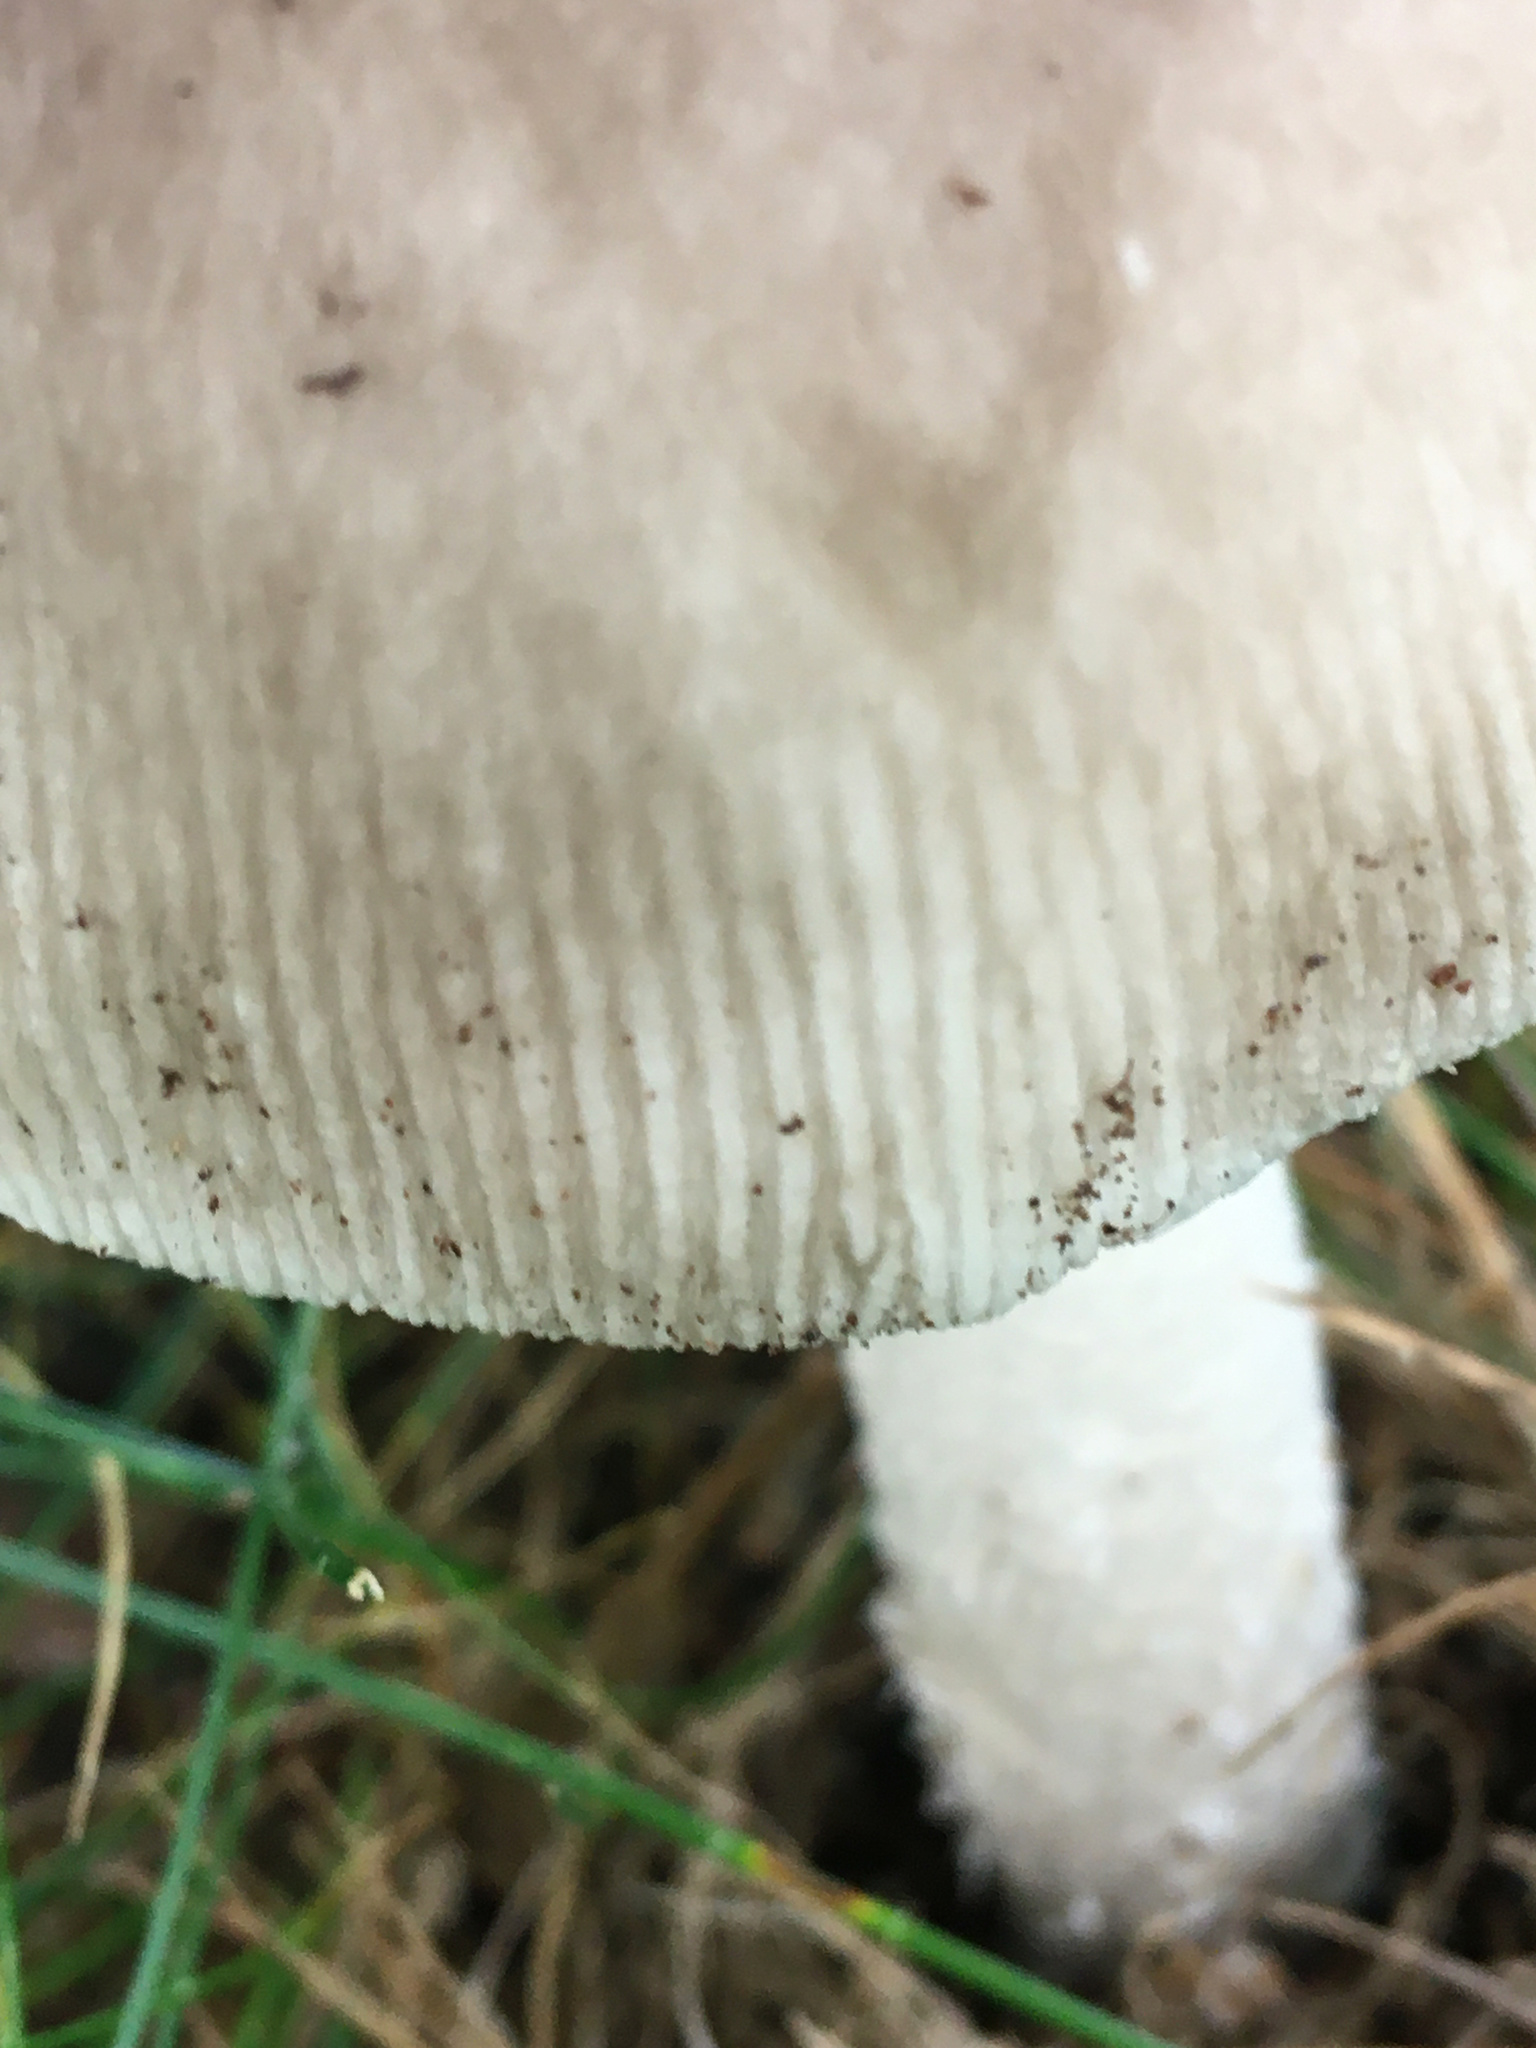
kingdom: Fungi
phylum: Basidiomycota
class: Agaricomycetes
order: Agaricales
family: Amanitaceae
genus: Amanita
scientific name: Amanita spreta
